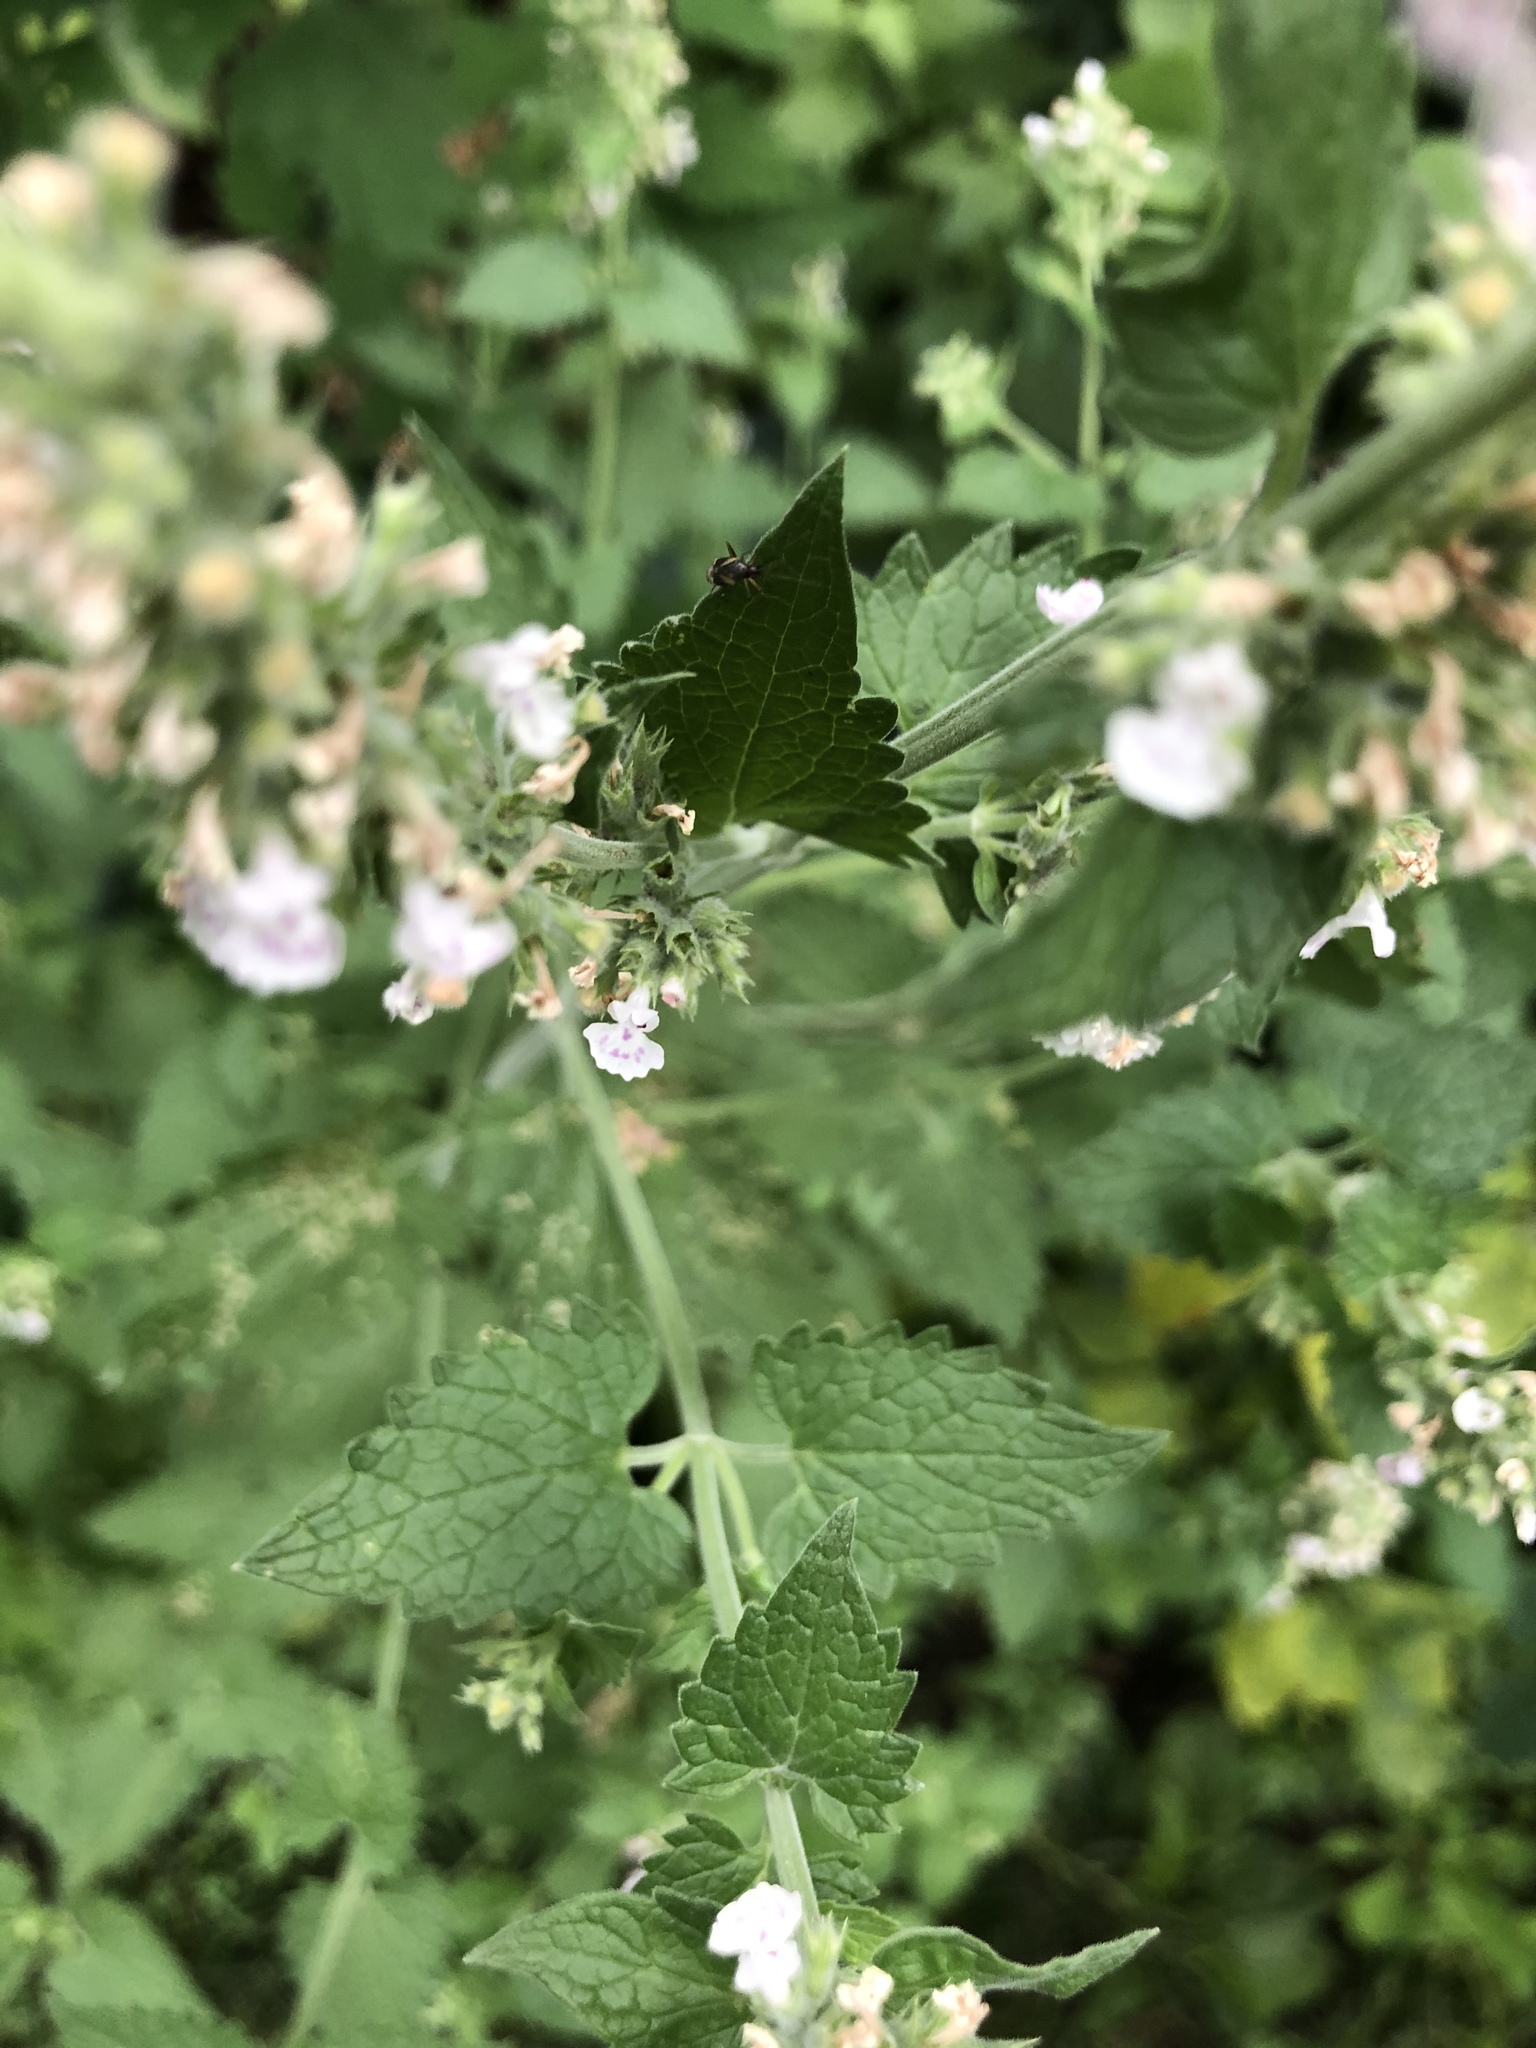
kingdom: Plantae
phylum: Tracheophyta
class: Magnoliopsida
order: Lamiales
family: Lamiaceae
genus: Nepeta
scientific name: Nepeta cataria
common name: Catnip
